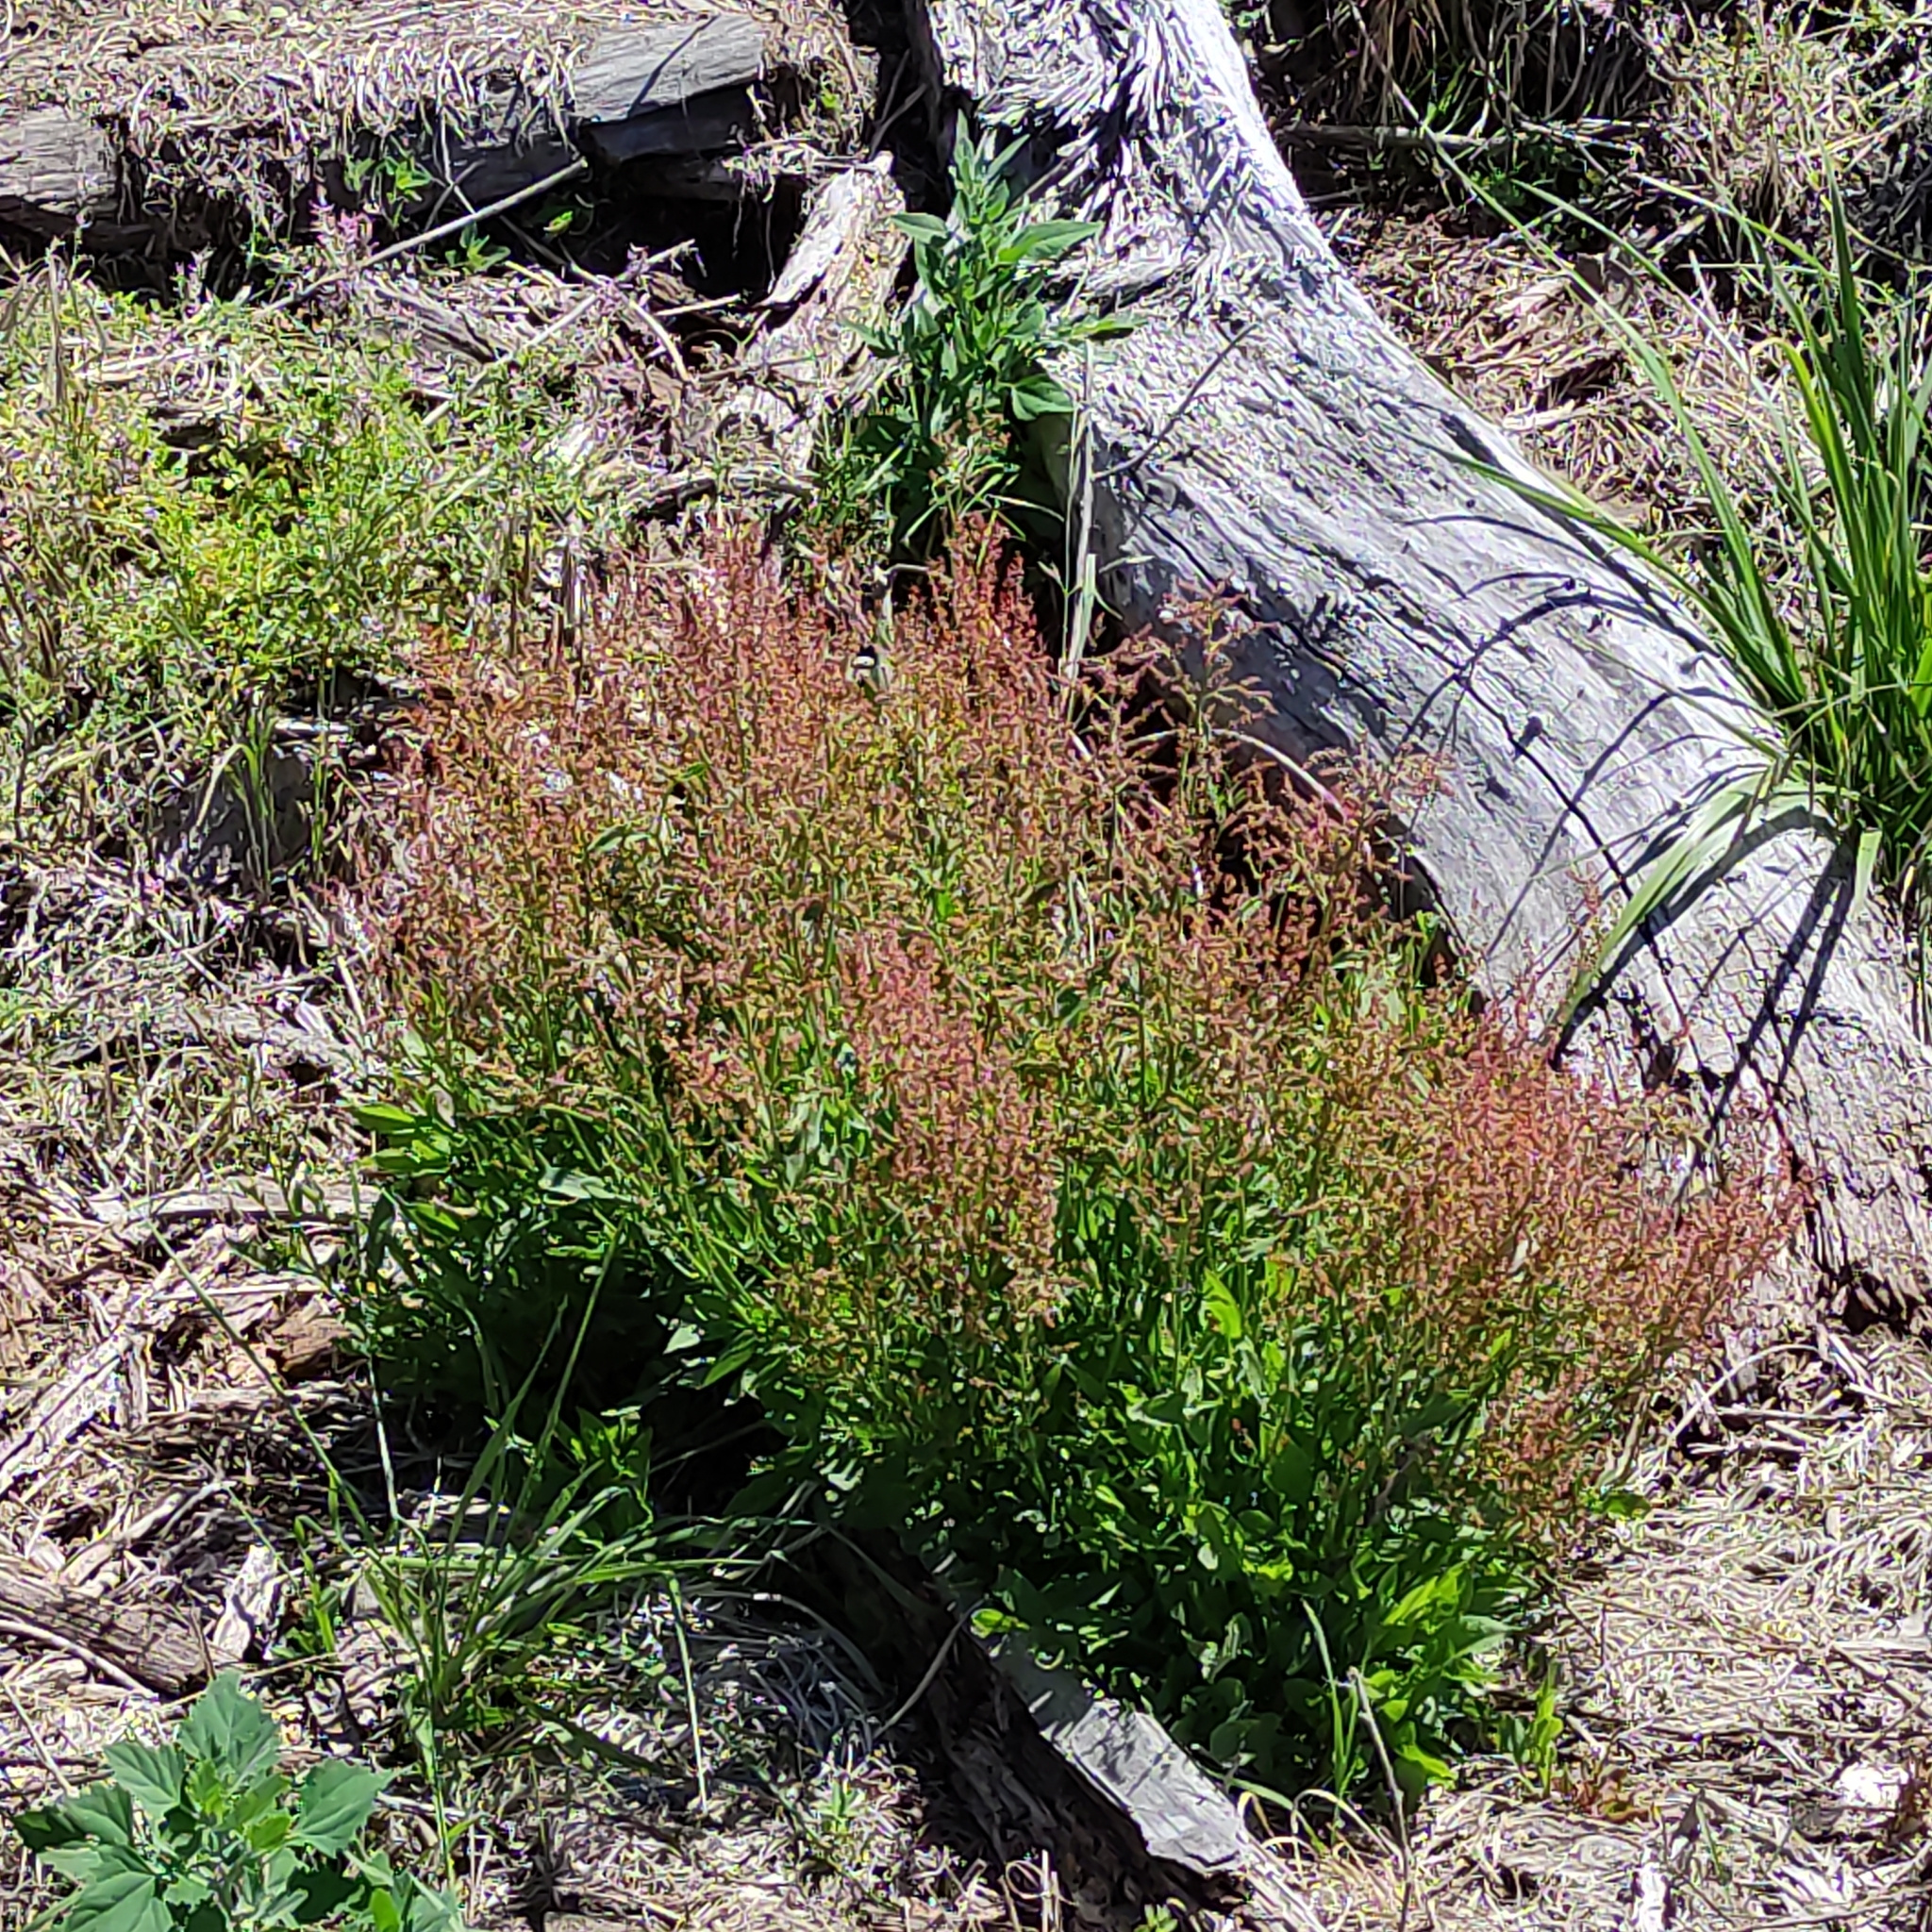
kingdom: Plantae
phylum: Tracheophyta
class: Magnoliopsida
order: Caryophyllales
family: Polygonaceae
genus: Rumex
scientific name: Rumex acetosella
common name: Common sheep sorrel
